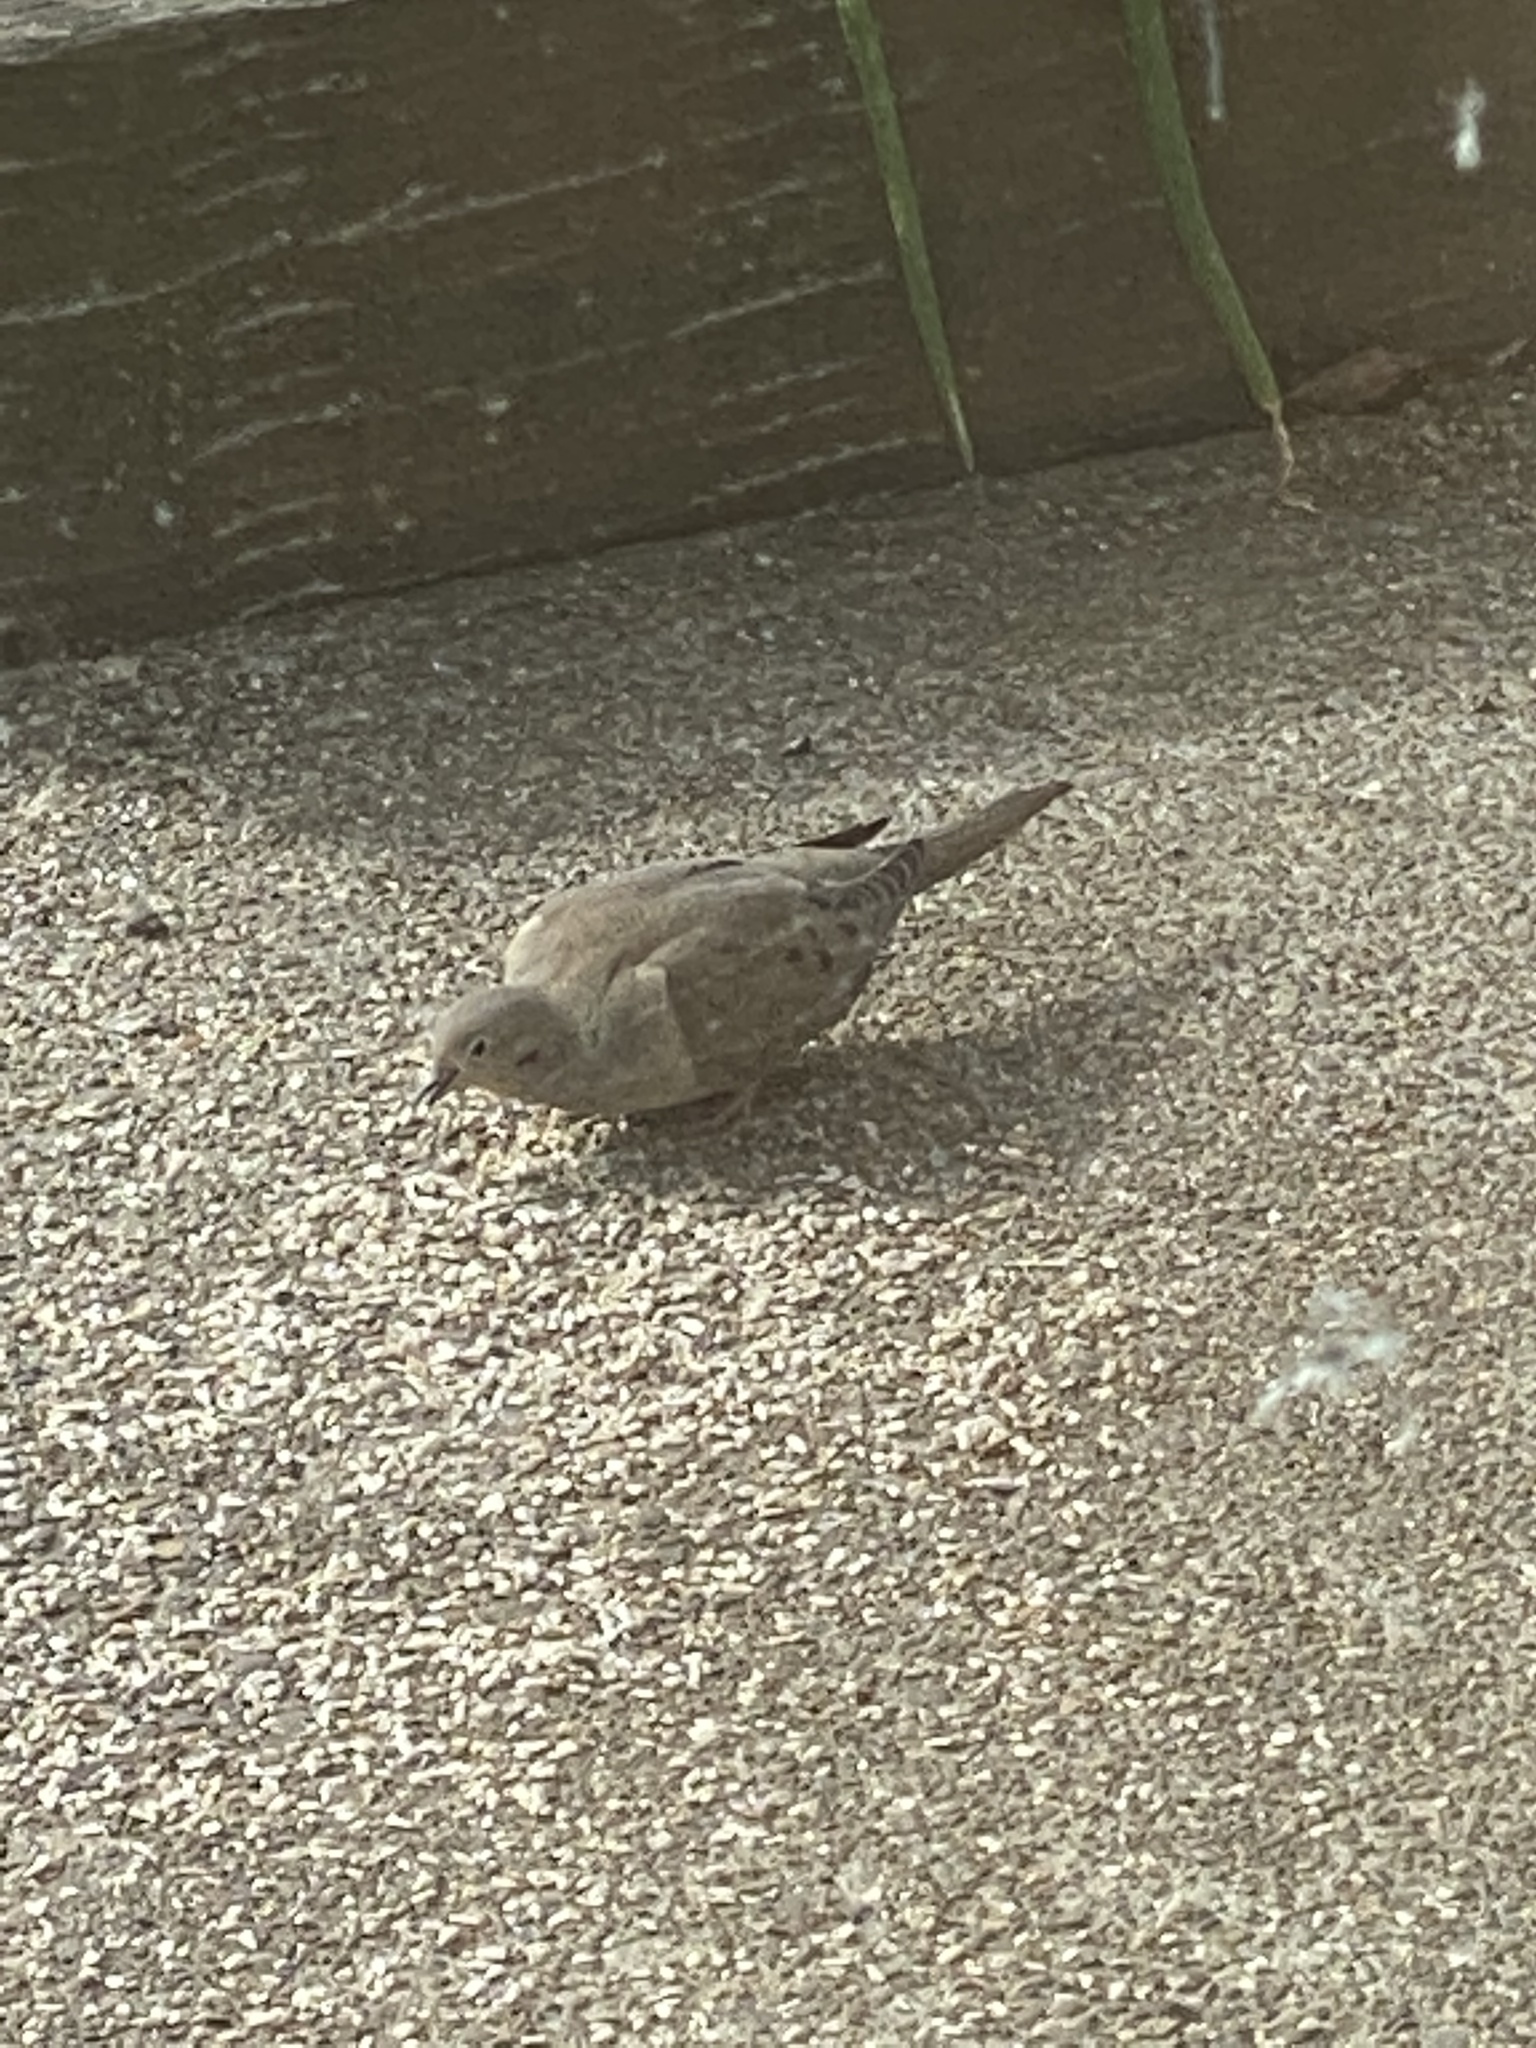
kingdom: Animalia
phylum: Chordata
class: Aves
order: Columbiformes
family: Columbidae
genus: Zenaida
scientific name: Zenaida macroura
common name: Mourning dove
